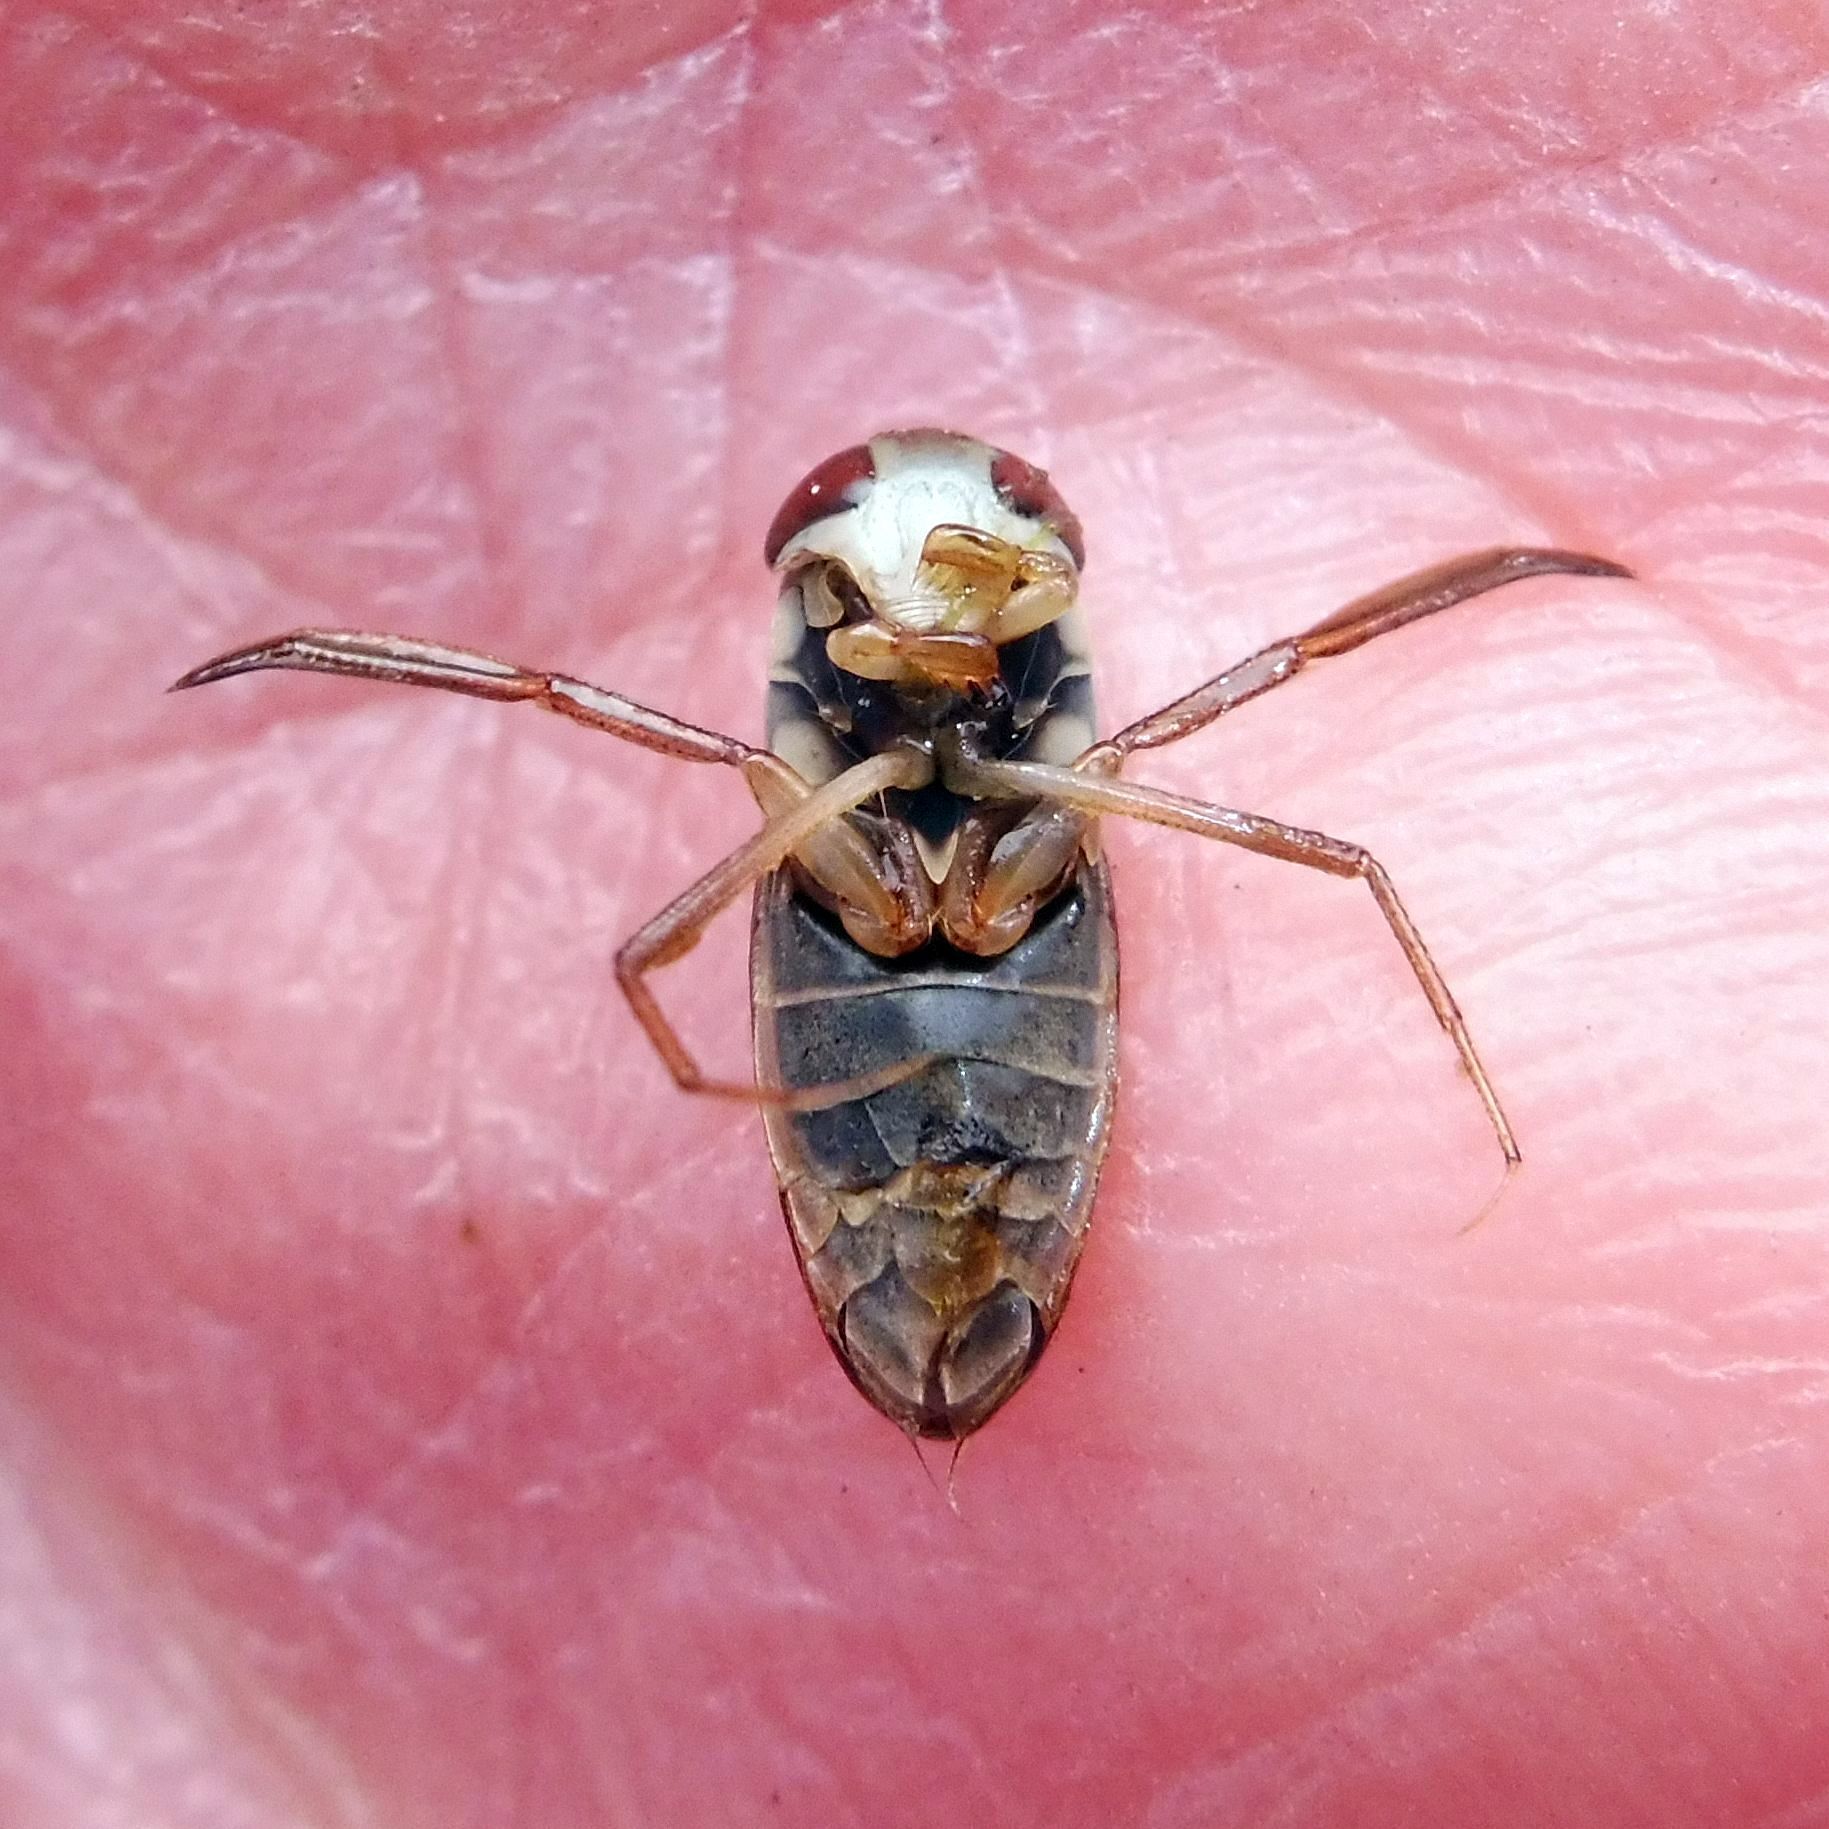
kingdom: Animalia
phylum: Arthropoda
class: Insecta
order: Hemiptera
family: Corixidae
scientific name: Corixidae
